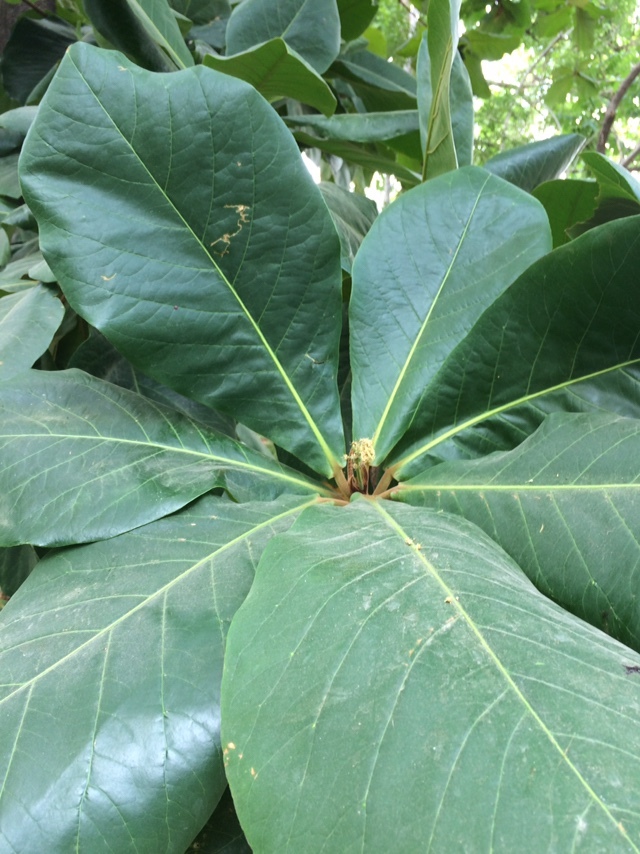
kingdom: Plantae
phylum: Tracheophyta
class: Magnoliopsida
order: Myrtales
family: Combretaceae
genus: Terminalia
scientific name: Terminalia catappa
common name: Tropical almond
